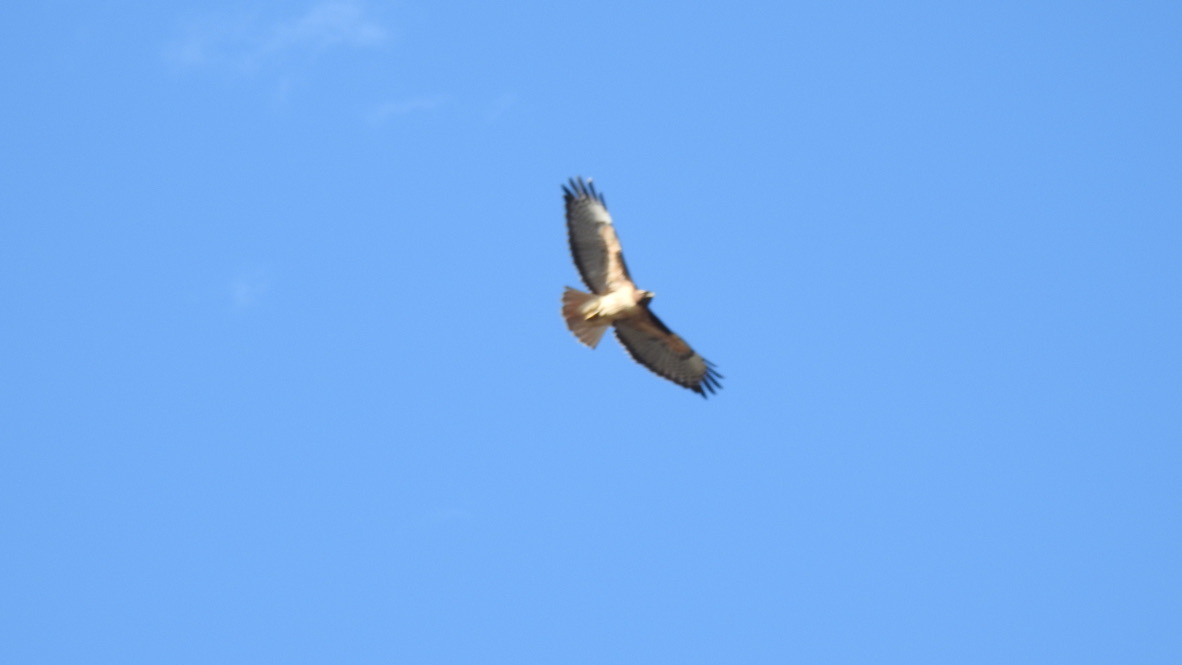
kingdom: Animalia
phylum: Chordata
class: Aves
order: Accipitriformes
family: Accipitridae
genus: Buteo
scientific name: Buteo jamaicensis
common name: Red-tailed hawk
